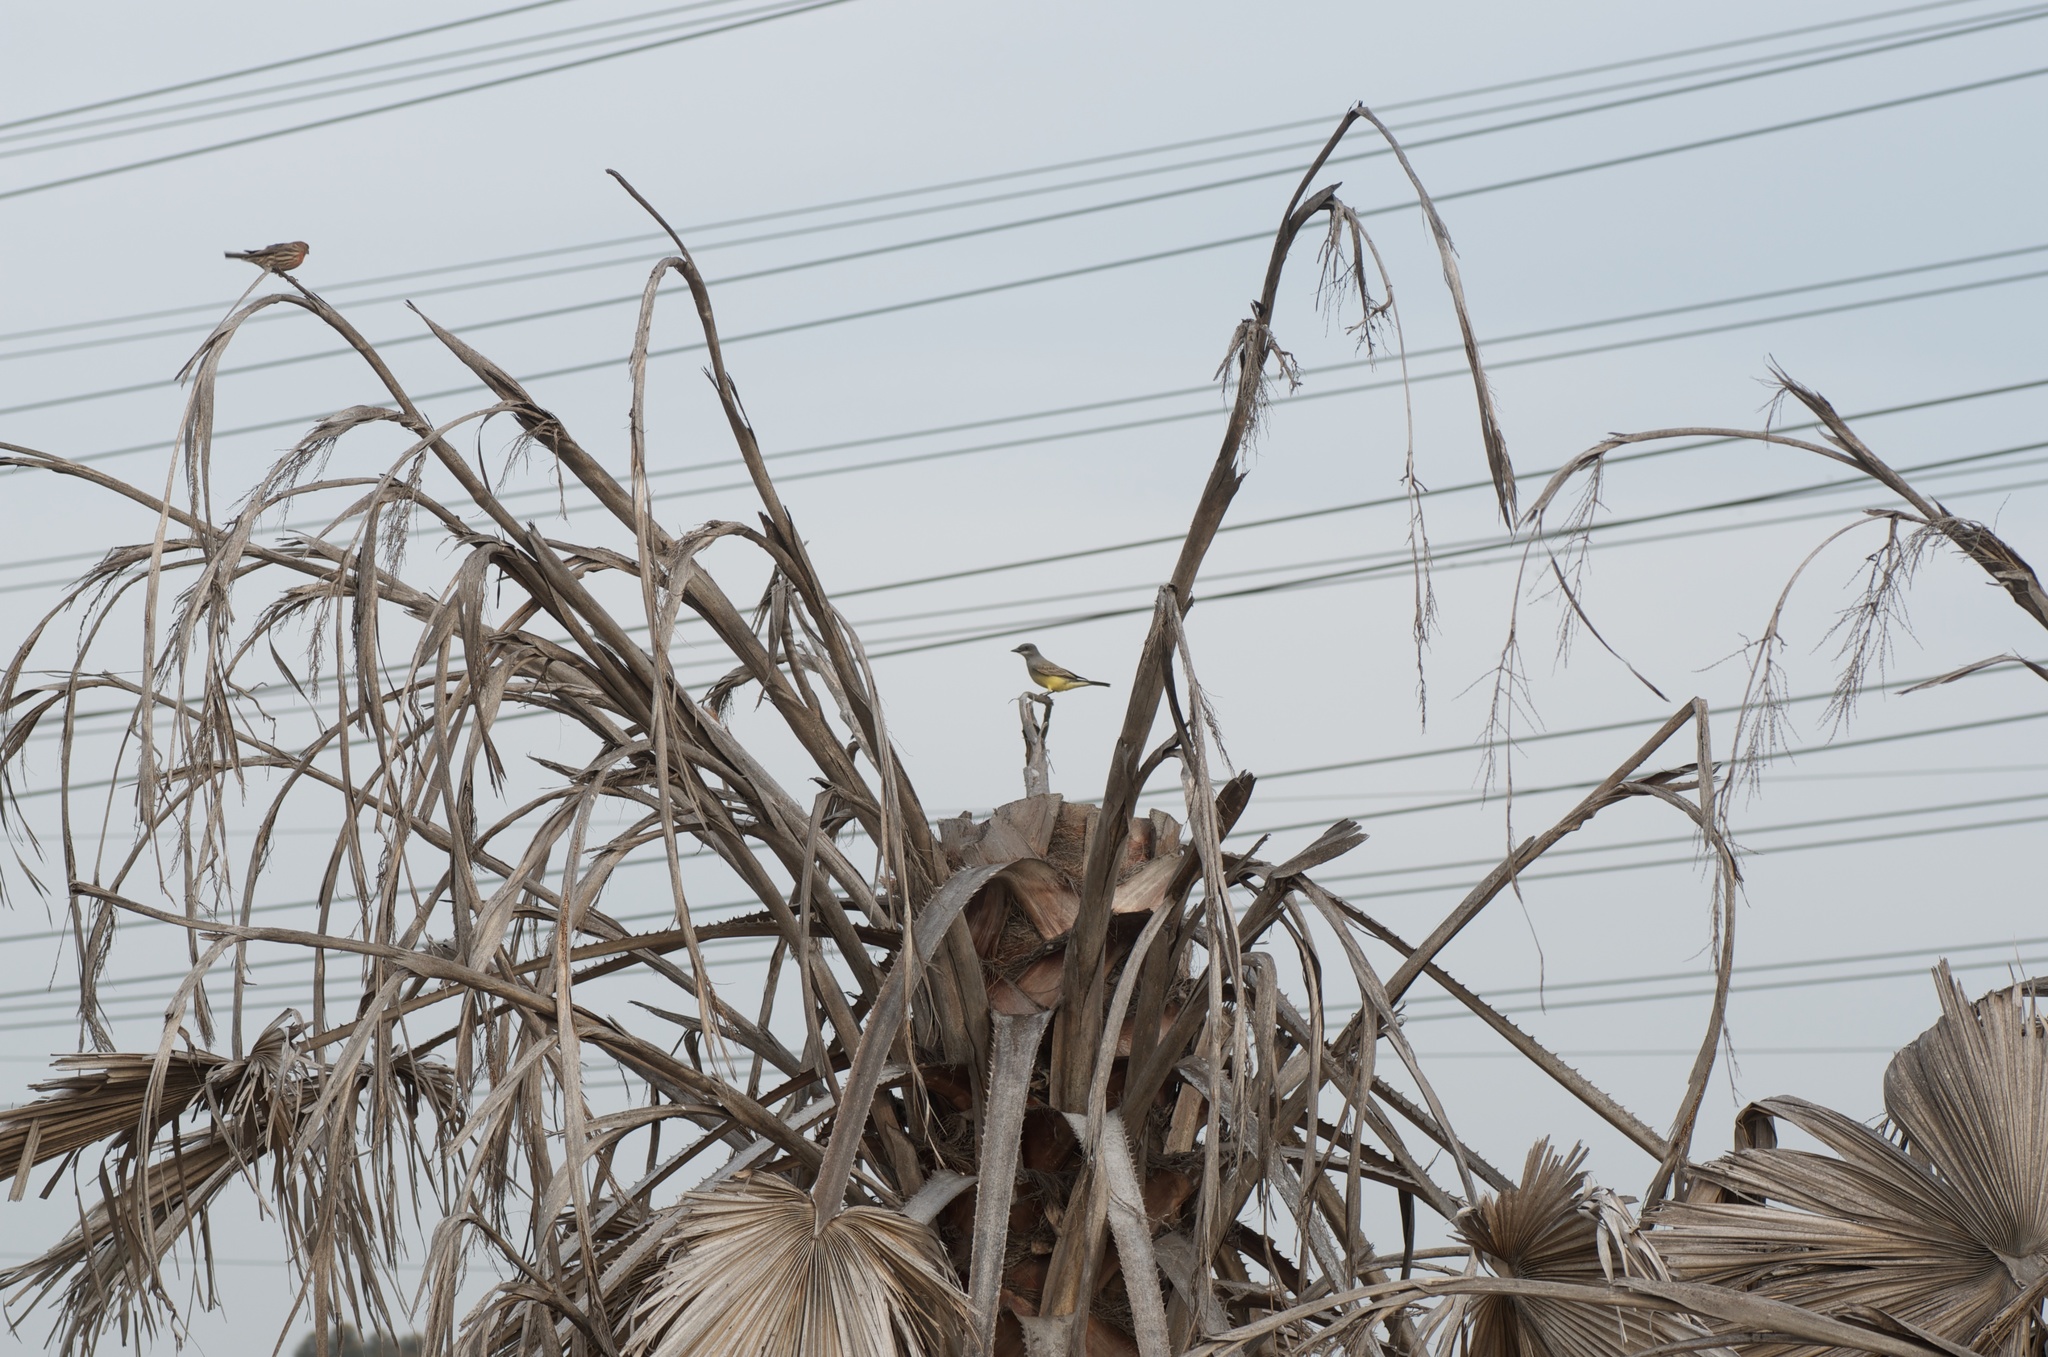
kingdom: Animalia
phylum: Chordata
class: Aves
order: Passeriformes
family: Tyrannidae
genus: Tyrannus
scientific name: Tyrannus vociferans
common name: Cassin's kingbird
